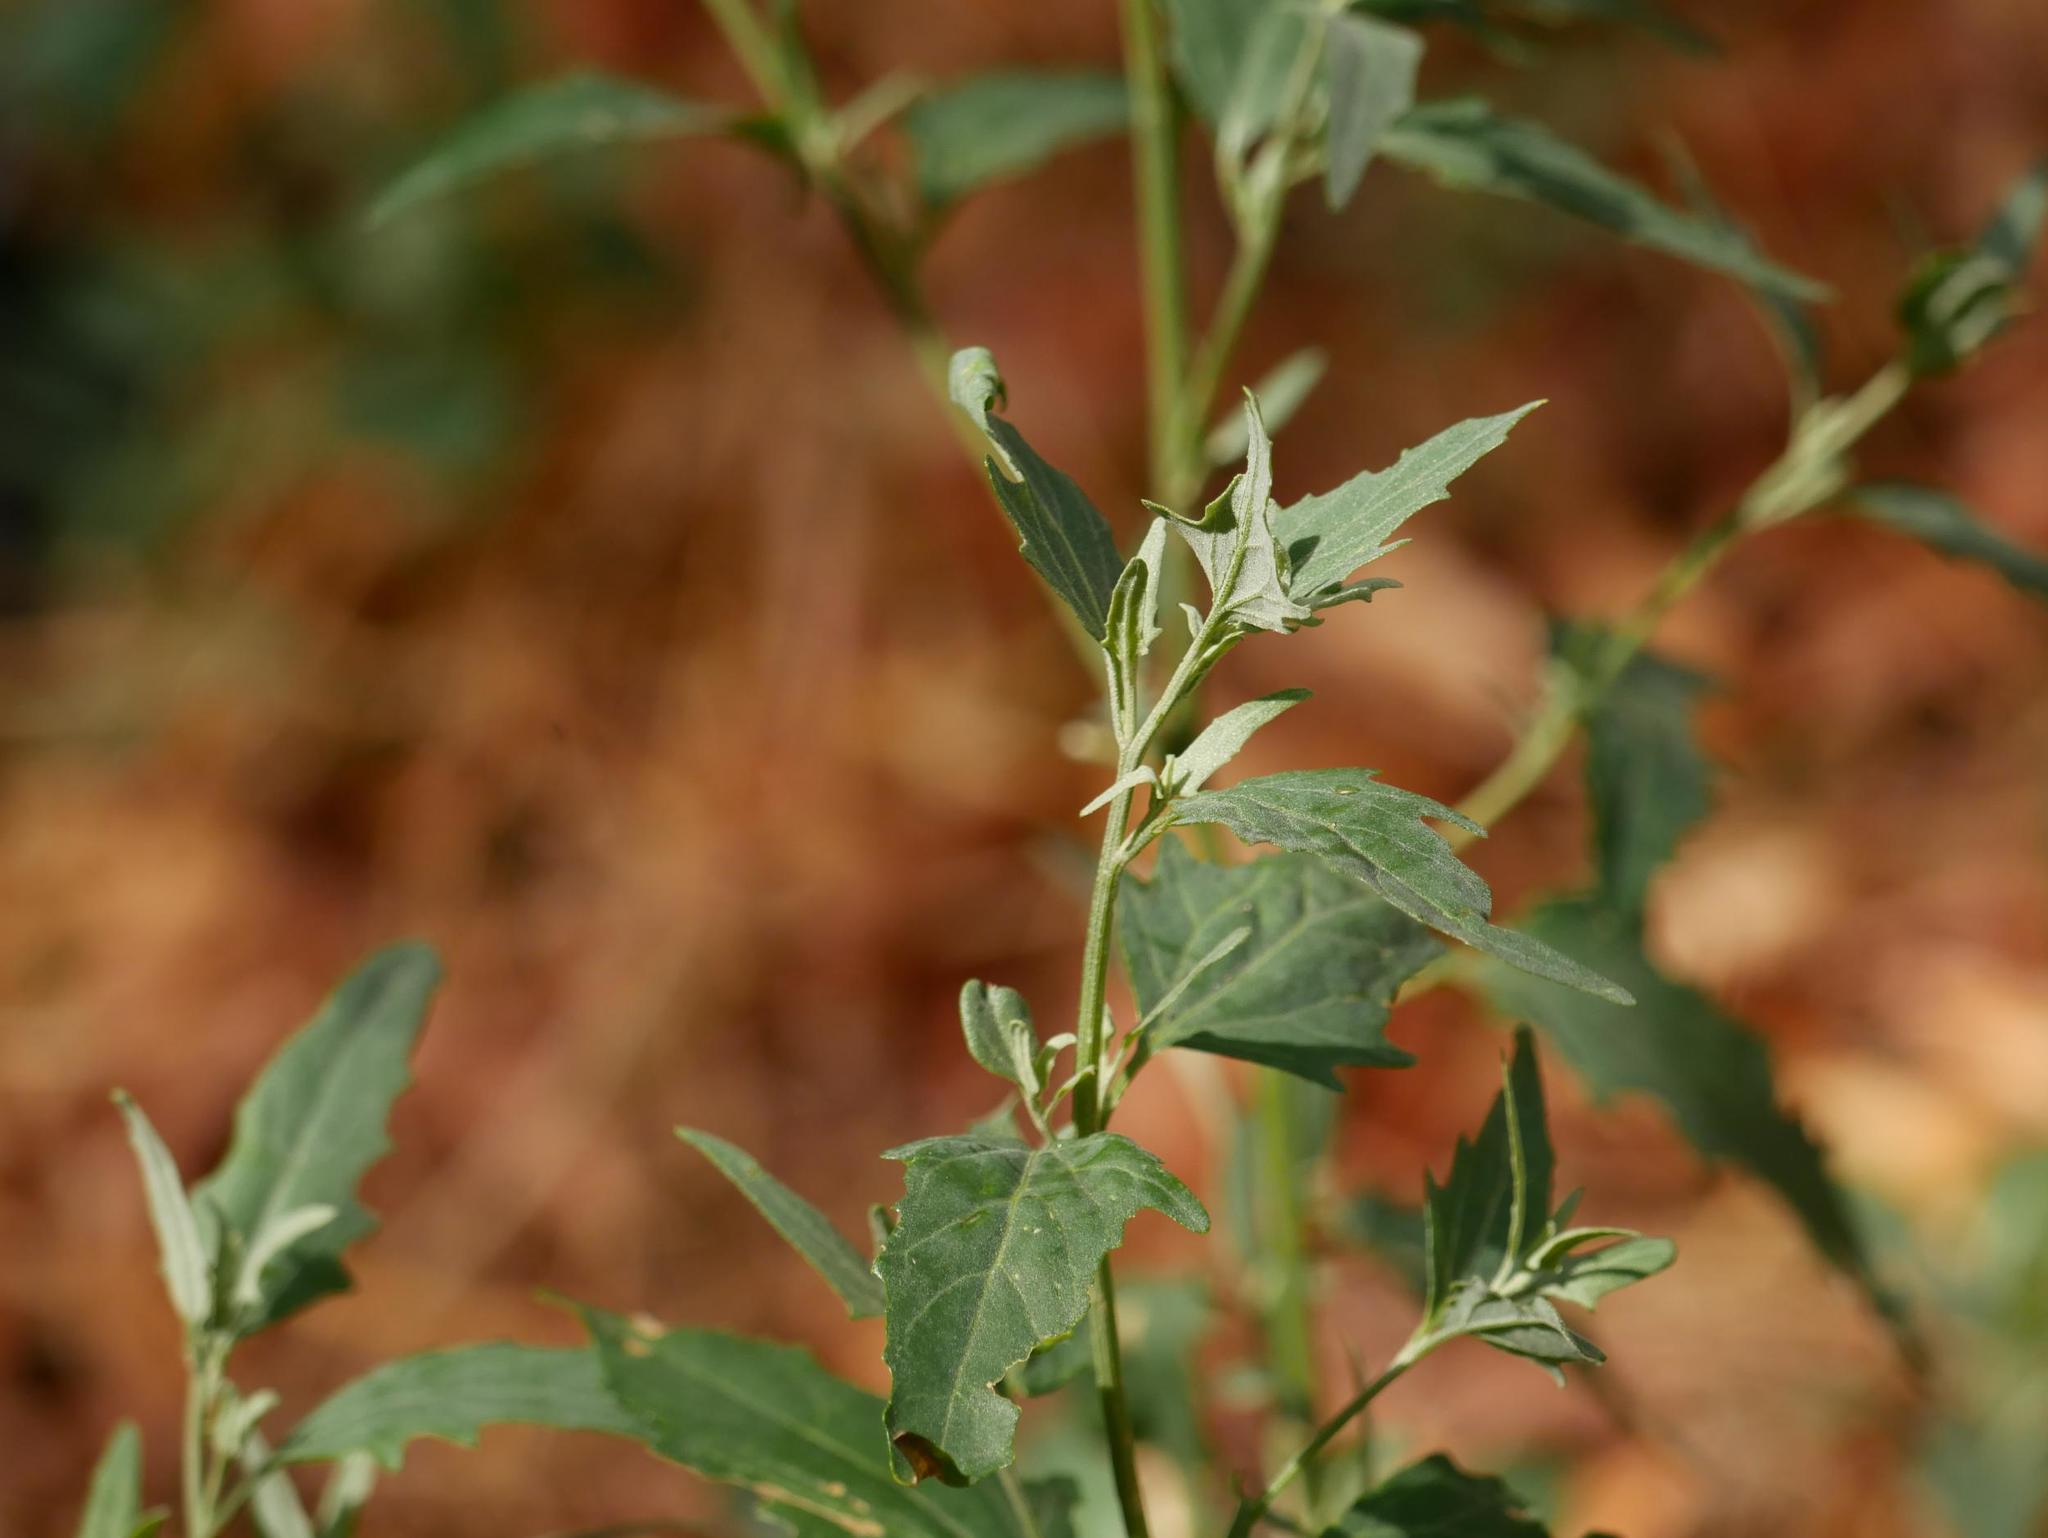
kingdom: Plantae
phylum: Tracheophyta
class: Magnoliopsida
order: Caryophyllales
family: Amaranthaceae
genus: Chenopodium
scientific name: Chenopodium album
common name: Fat-hen
